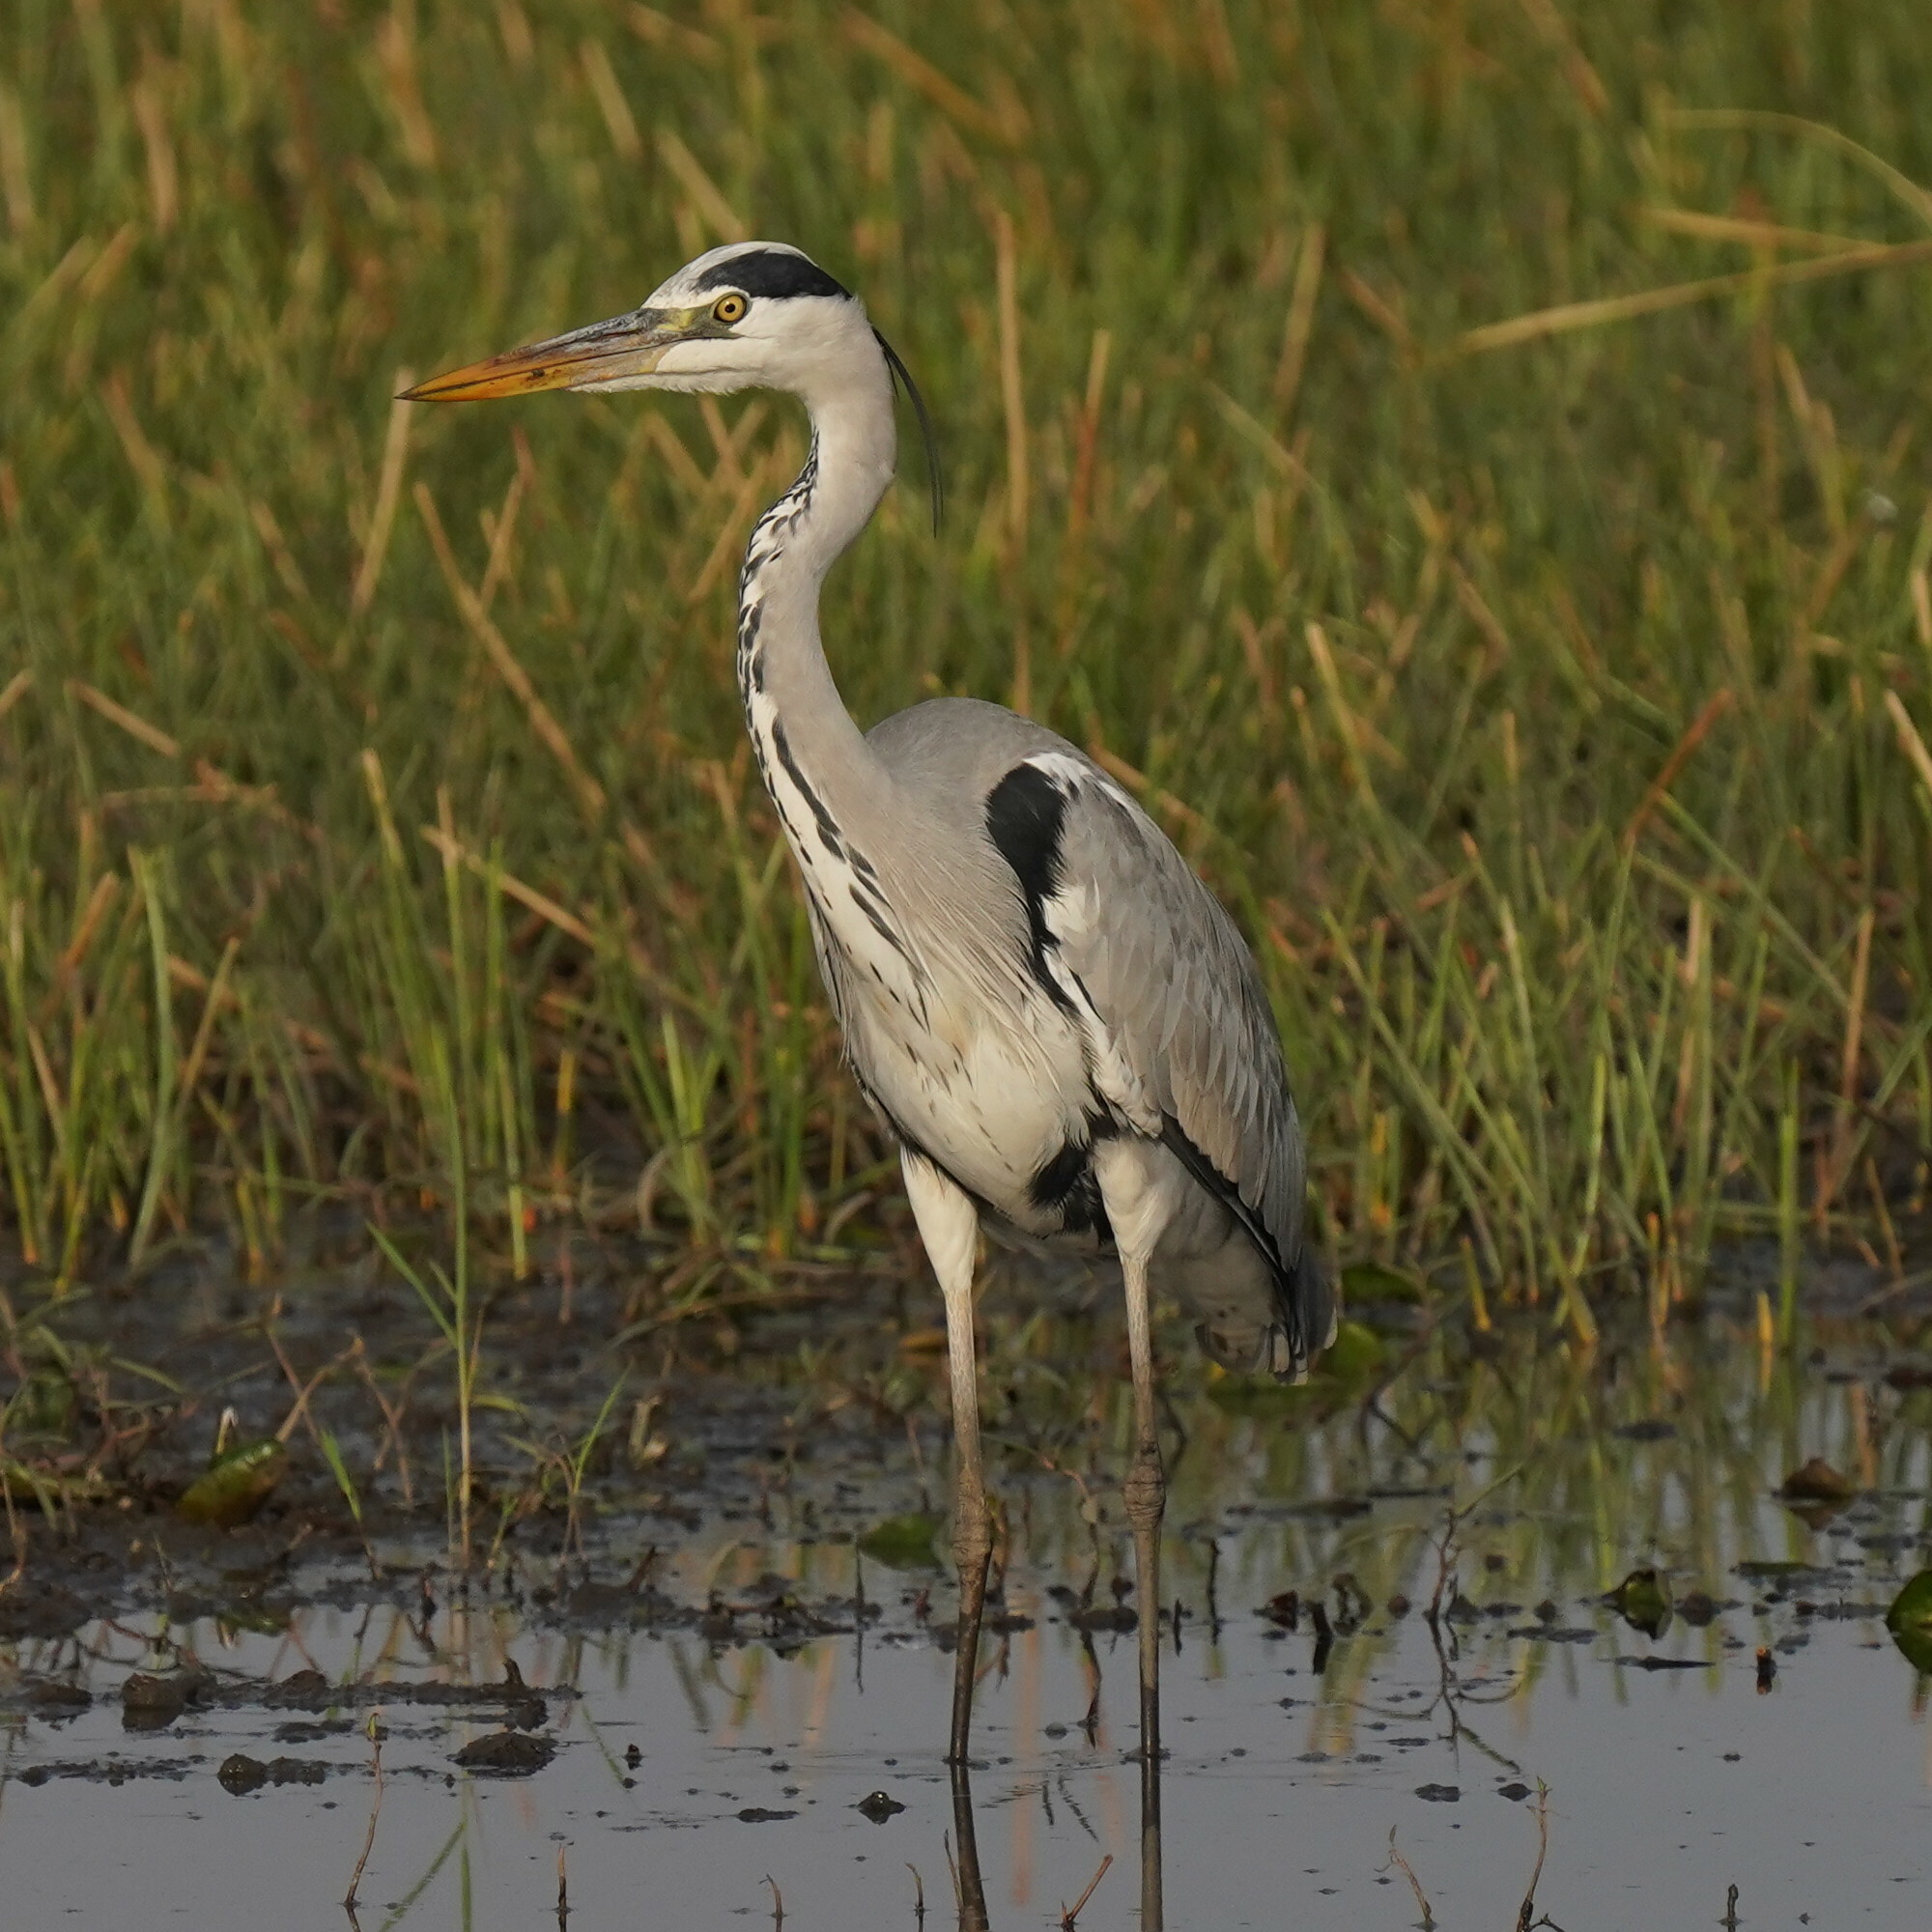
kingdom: Animalia
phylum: Chordata
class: Aves
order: Pelecaniformes
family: Ardeidae
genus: Ardea
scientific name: Ardea cinerea
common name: Grey heron
